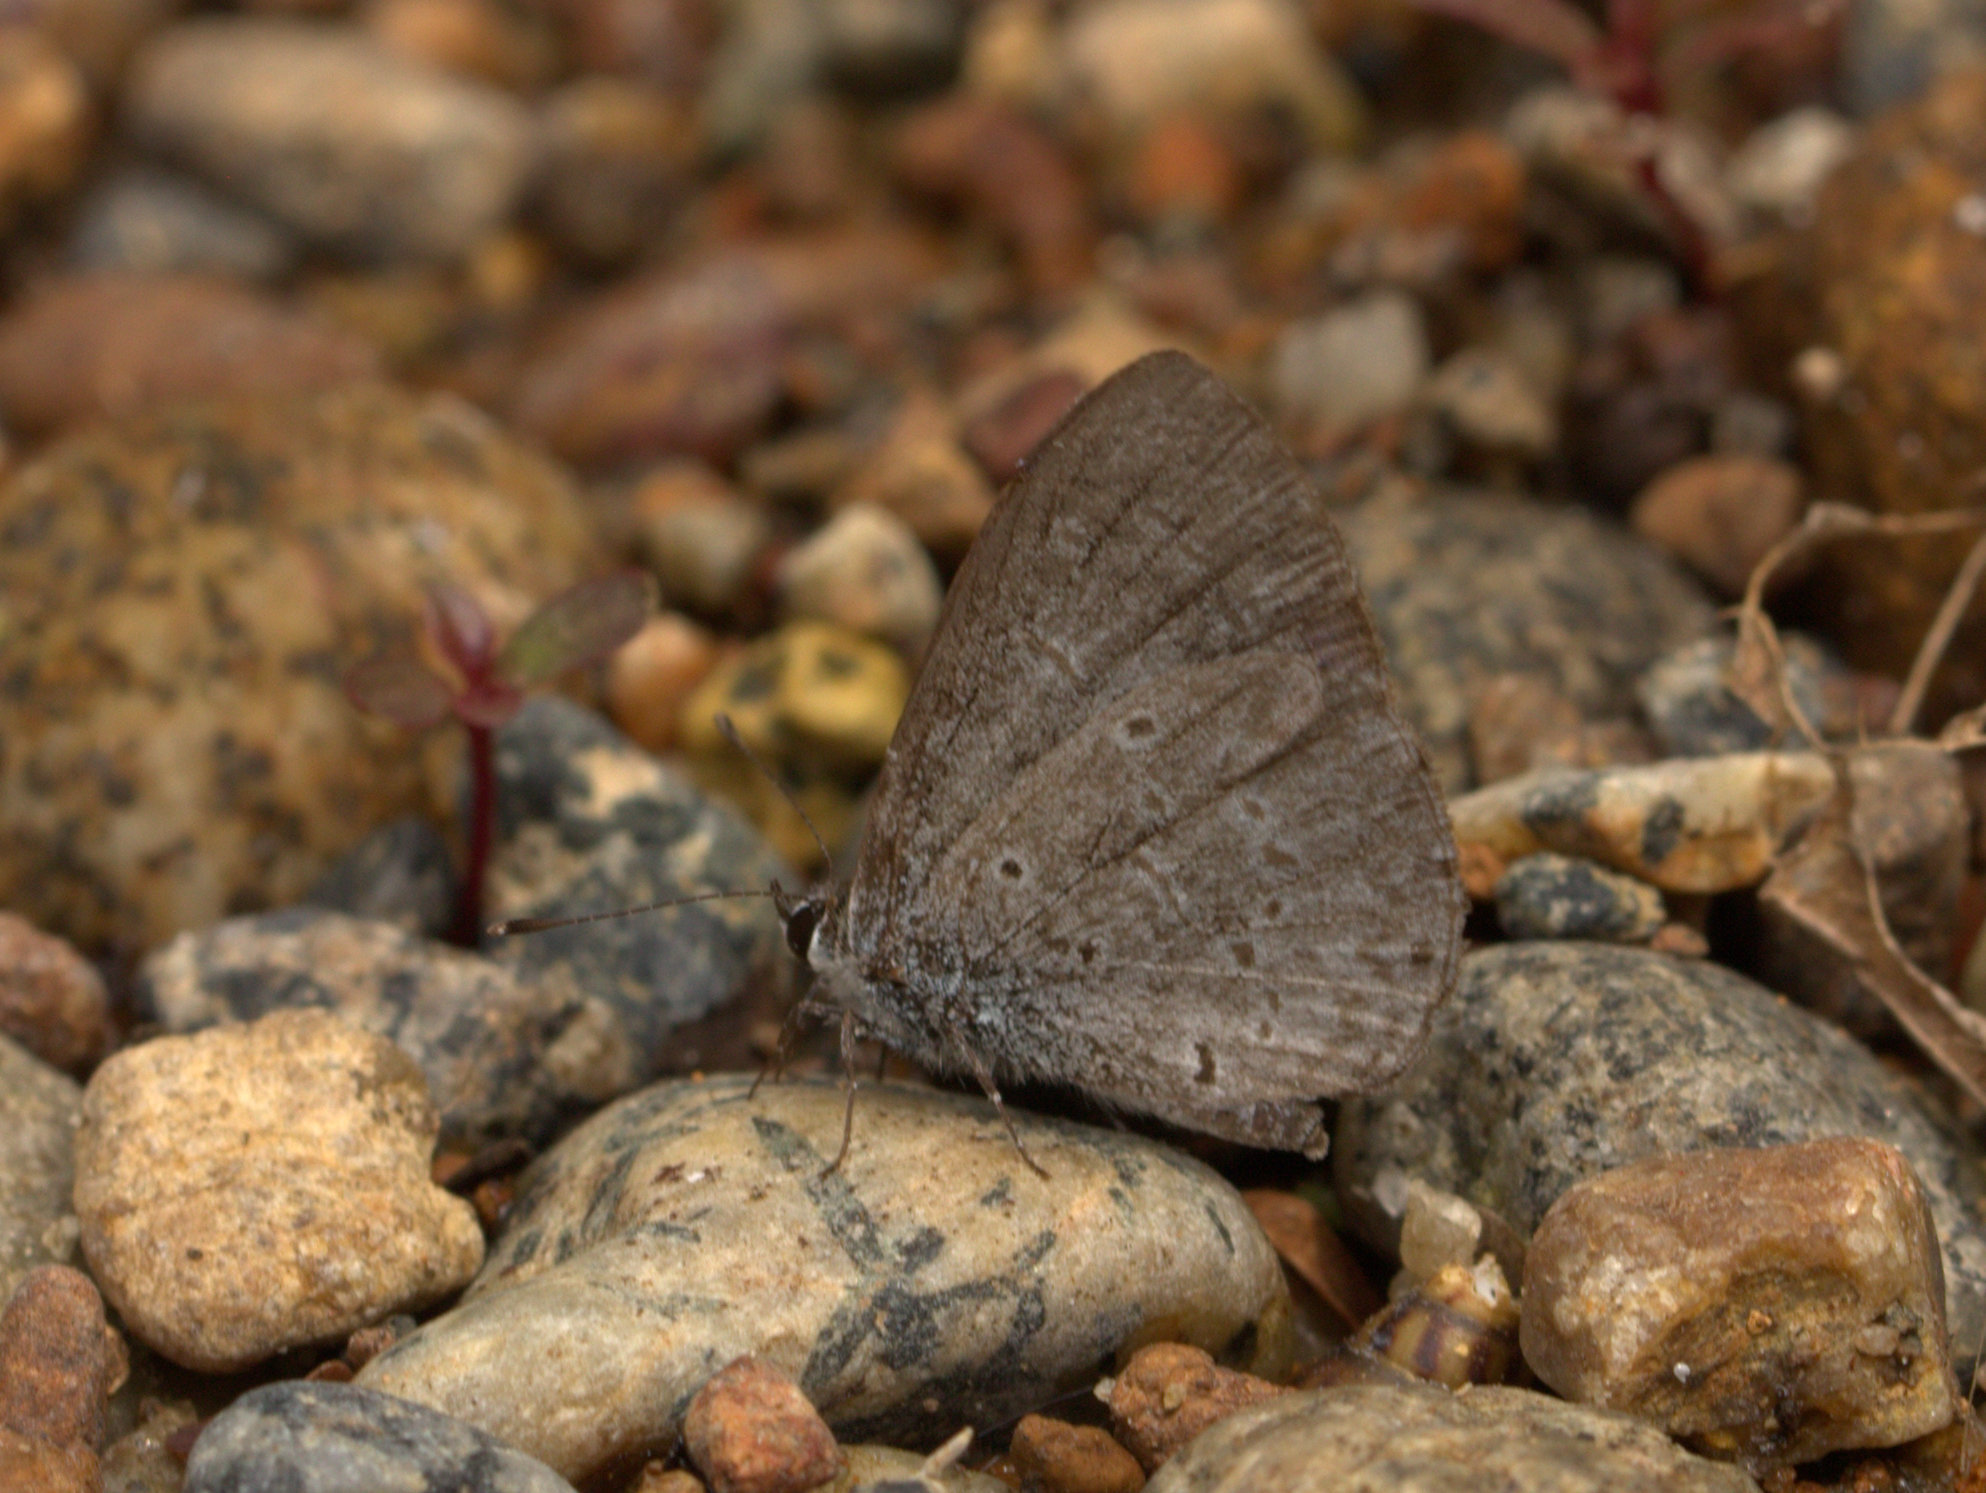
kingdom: Animalia
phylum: Arthropoda
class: Insecta
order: Lepidoptera
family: Lycaenidae
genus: Acytolepis
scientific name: Acytolepis puspa
